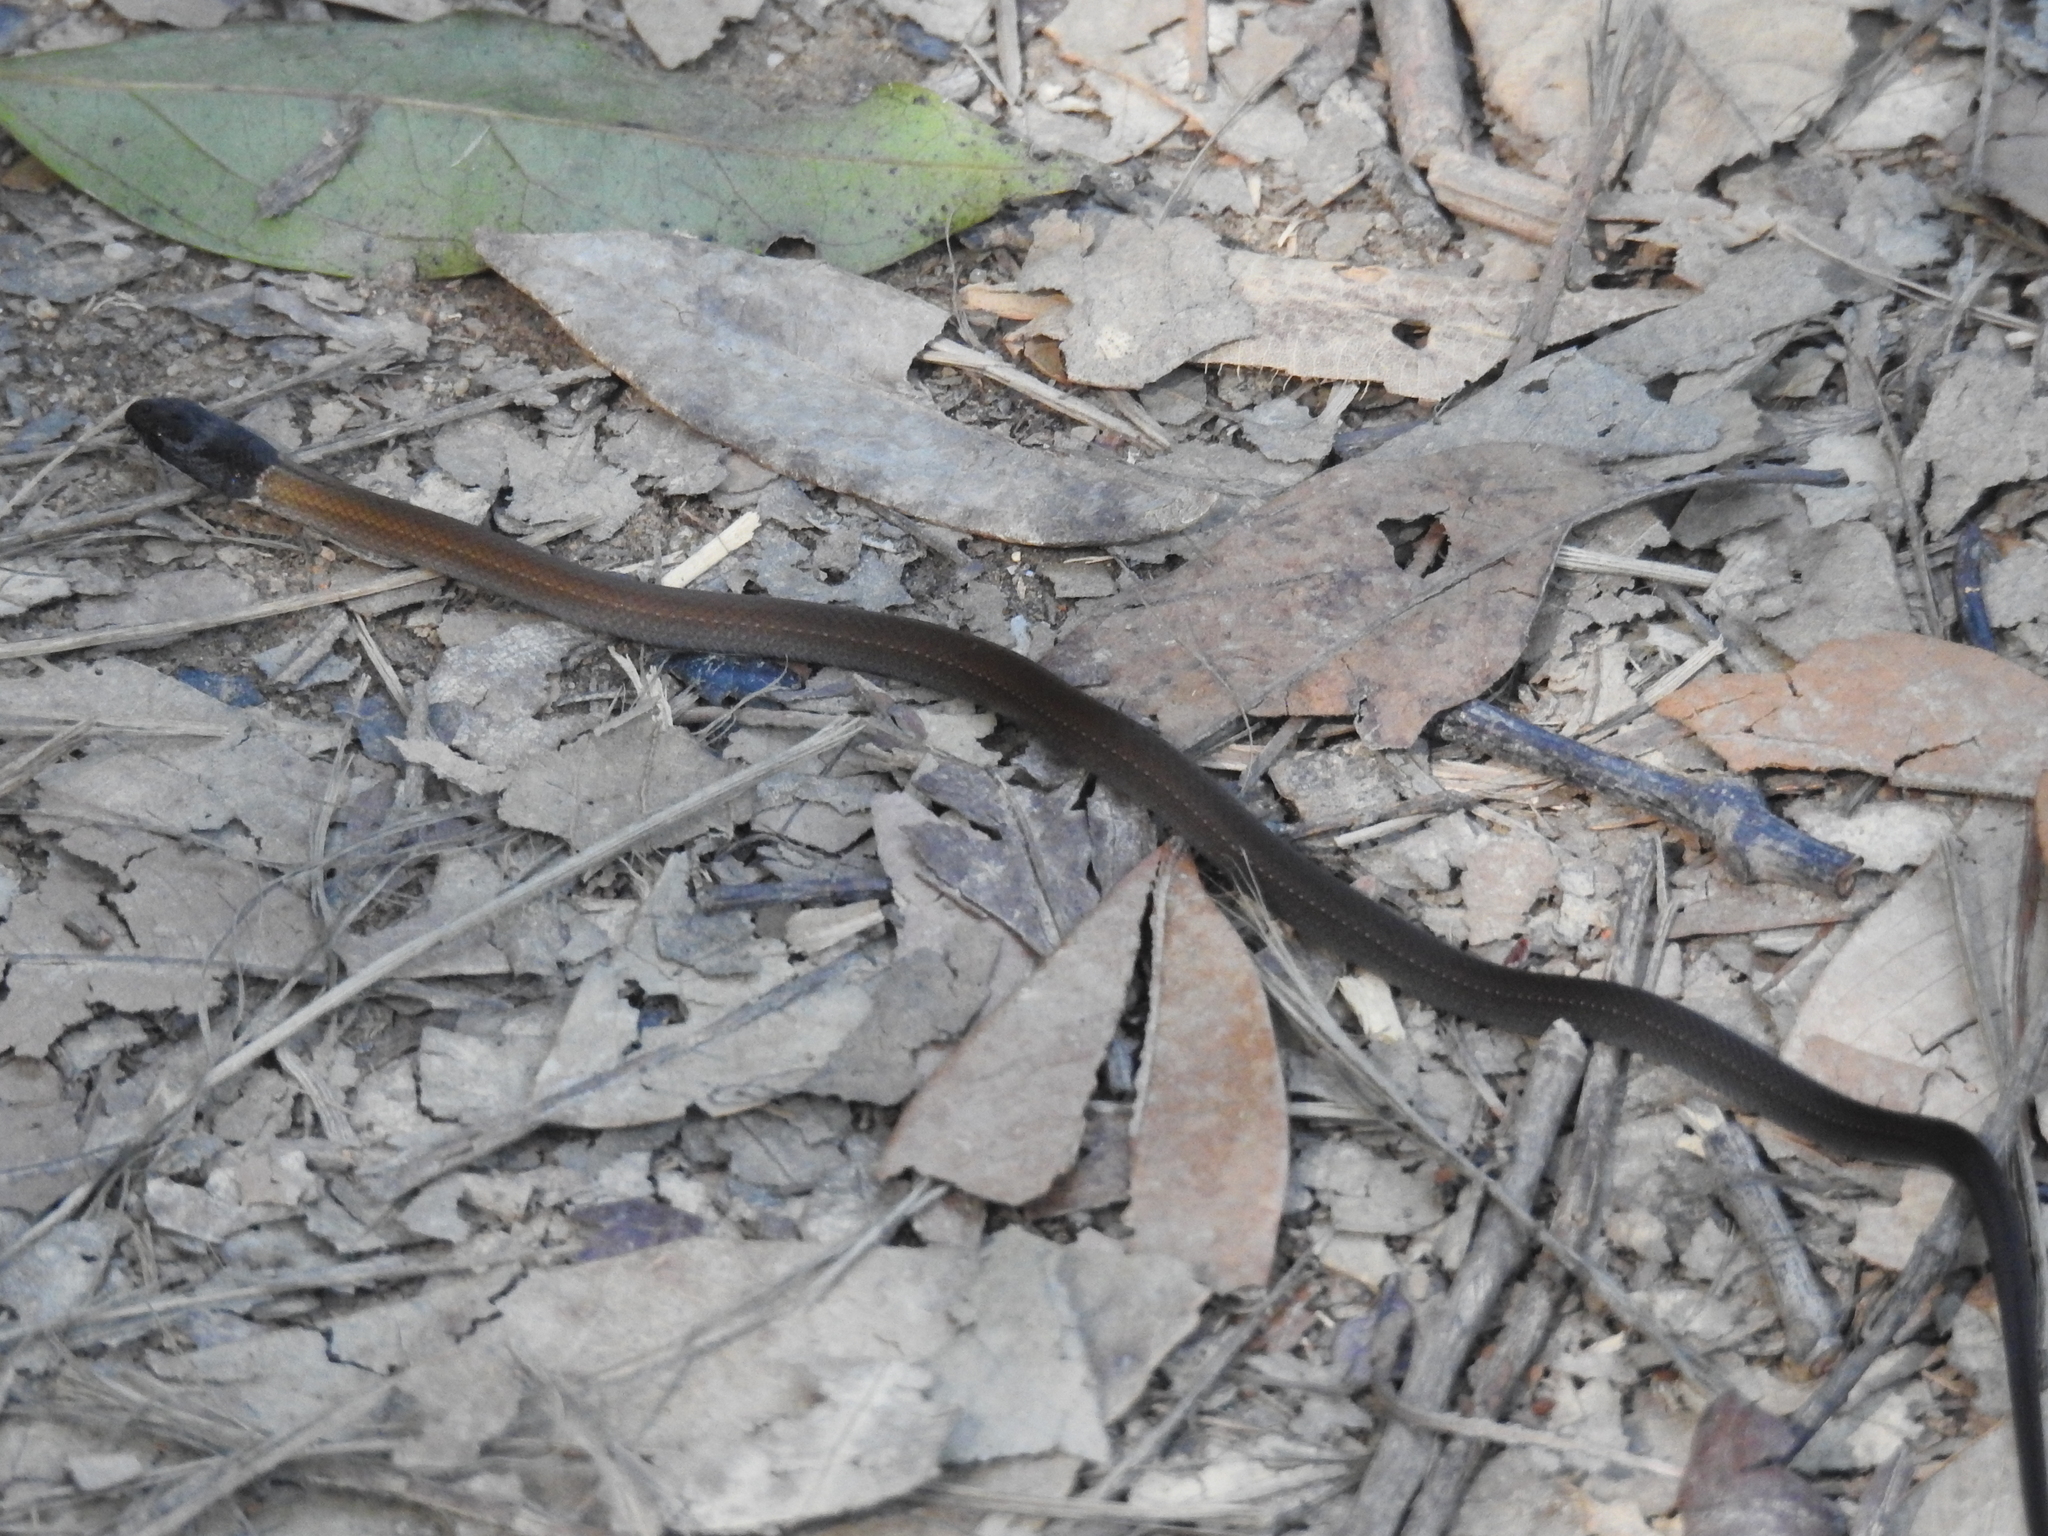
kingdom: Animalia
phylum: Chordata
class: Squamata
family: Colubridae
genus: Sibynophis
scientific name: Sibynophis chinensis
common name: Chinese many-tooth snake
